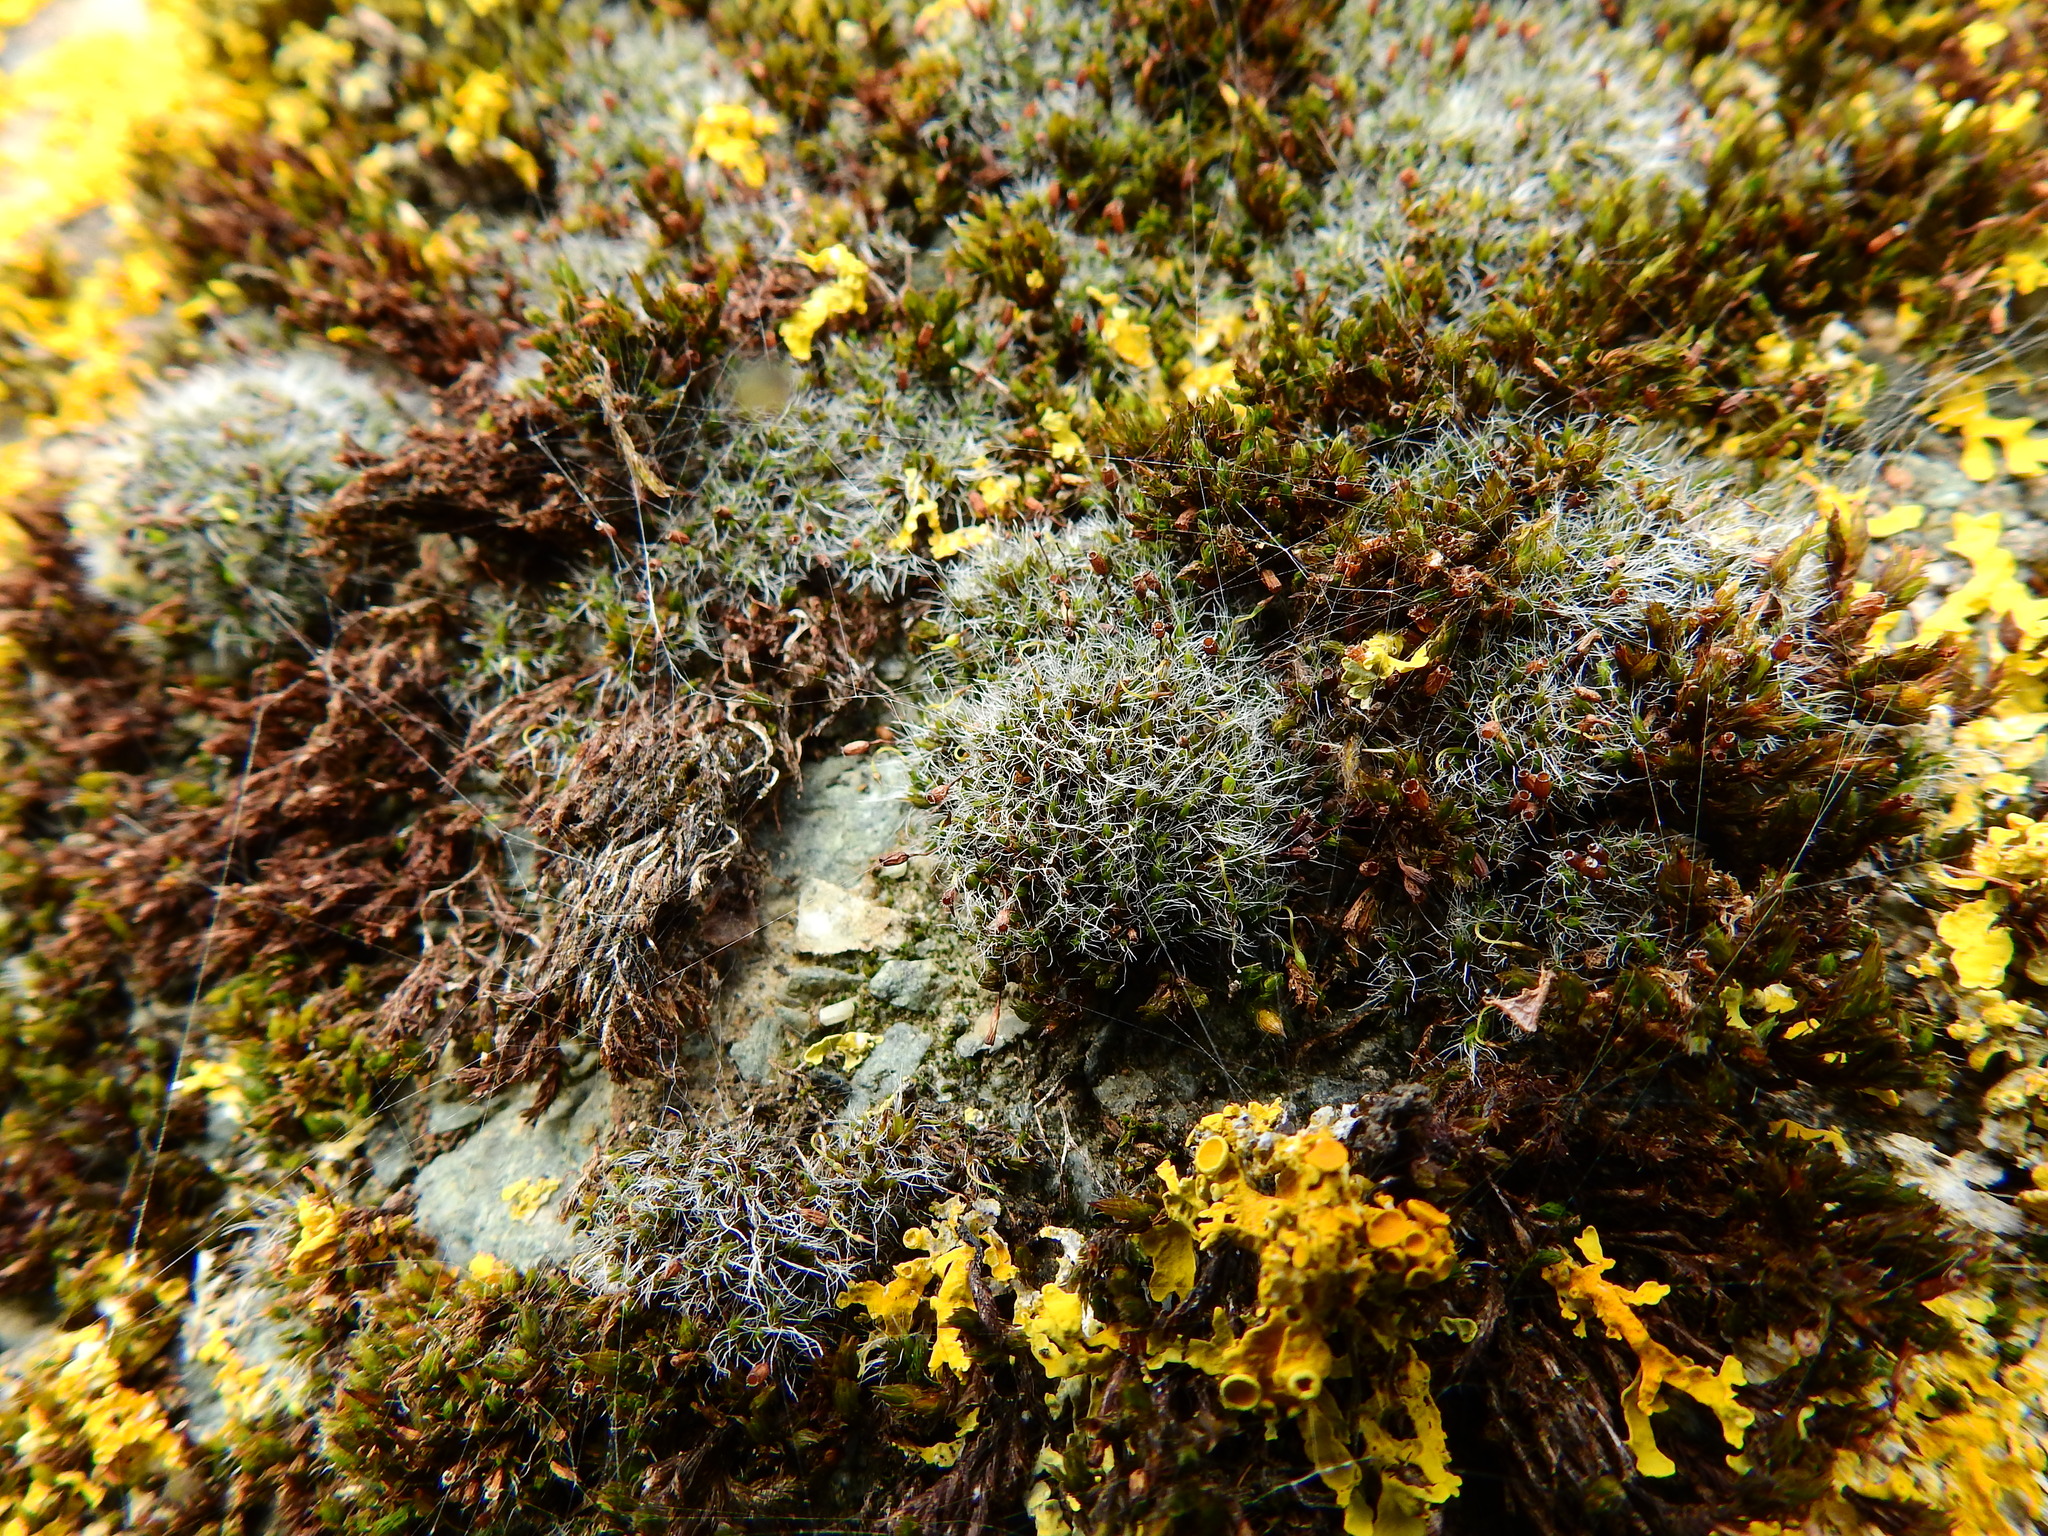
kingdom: Plantae
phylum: Bryophyta
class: Bryopsida
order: Grimmiales
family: Grimmiaceae
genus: Grimmia
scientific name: Grimmia pulvinata
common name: Grey-cushioned grimmia
